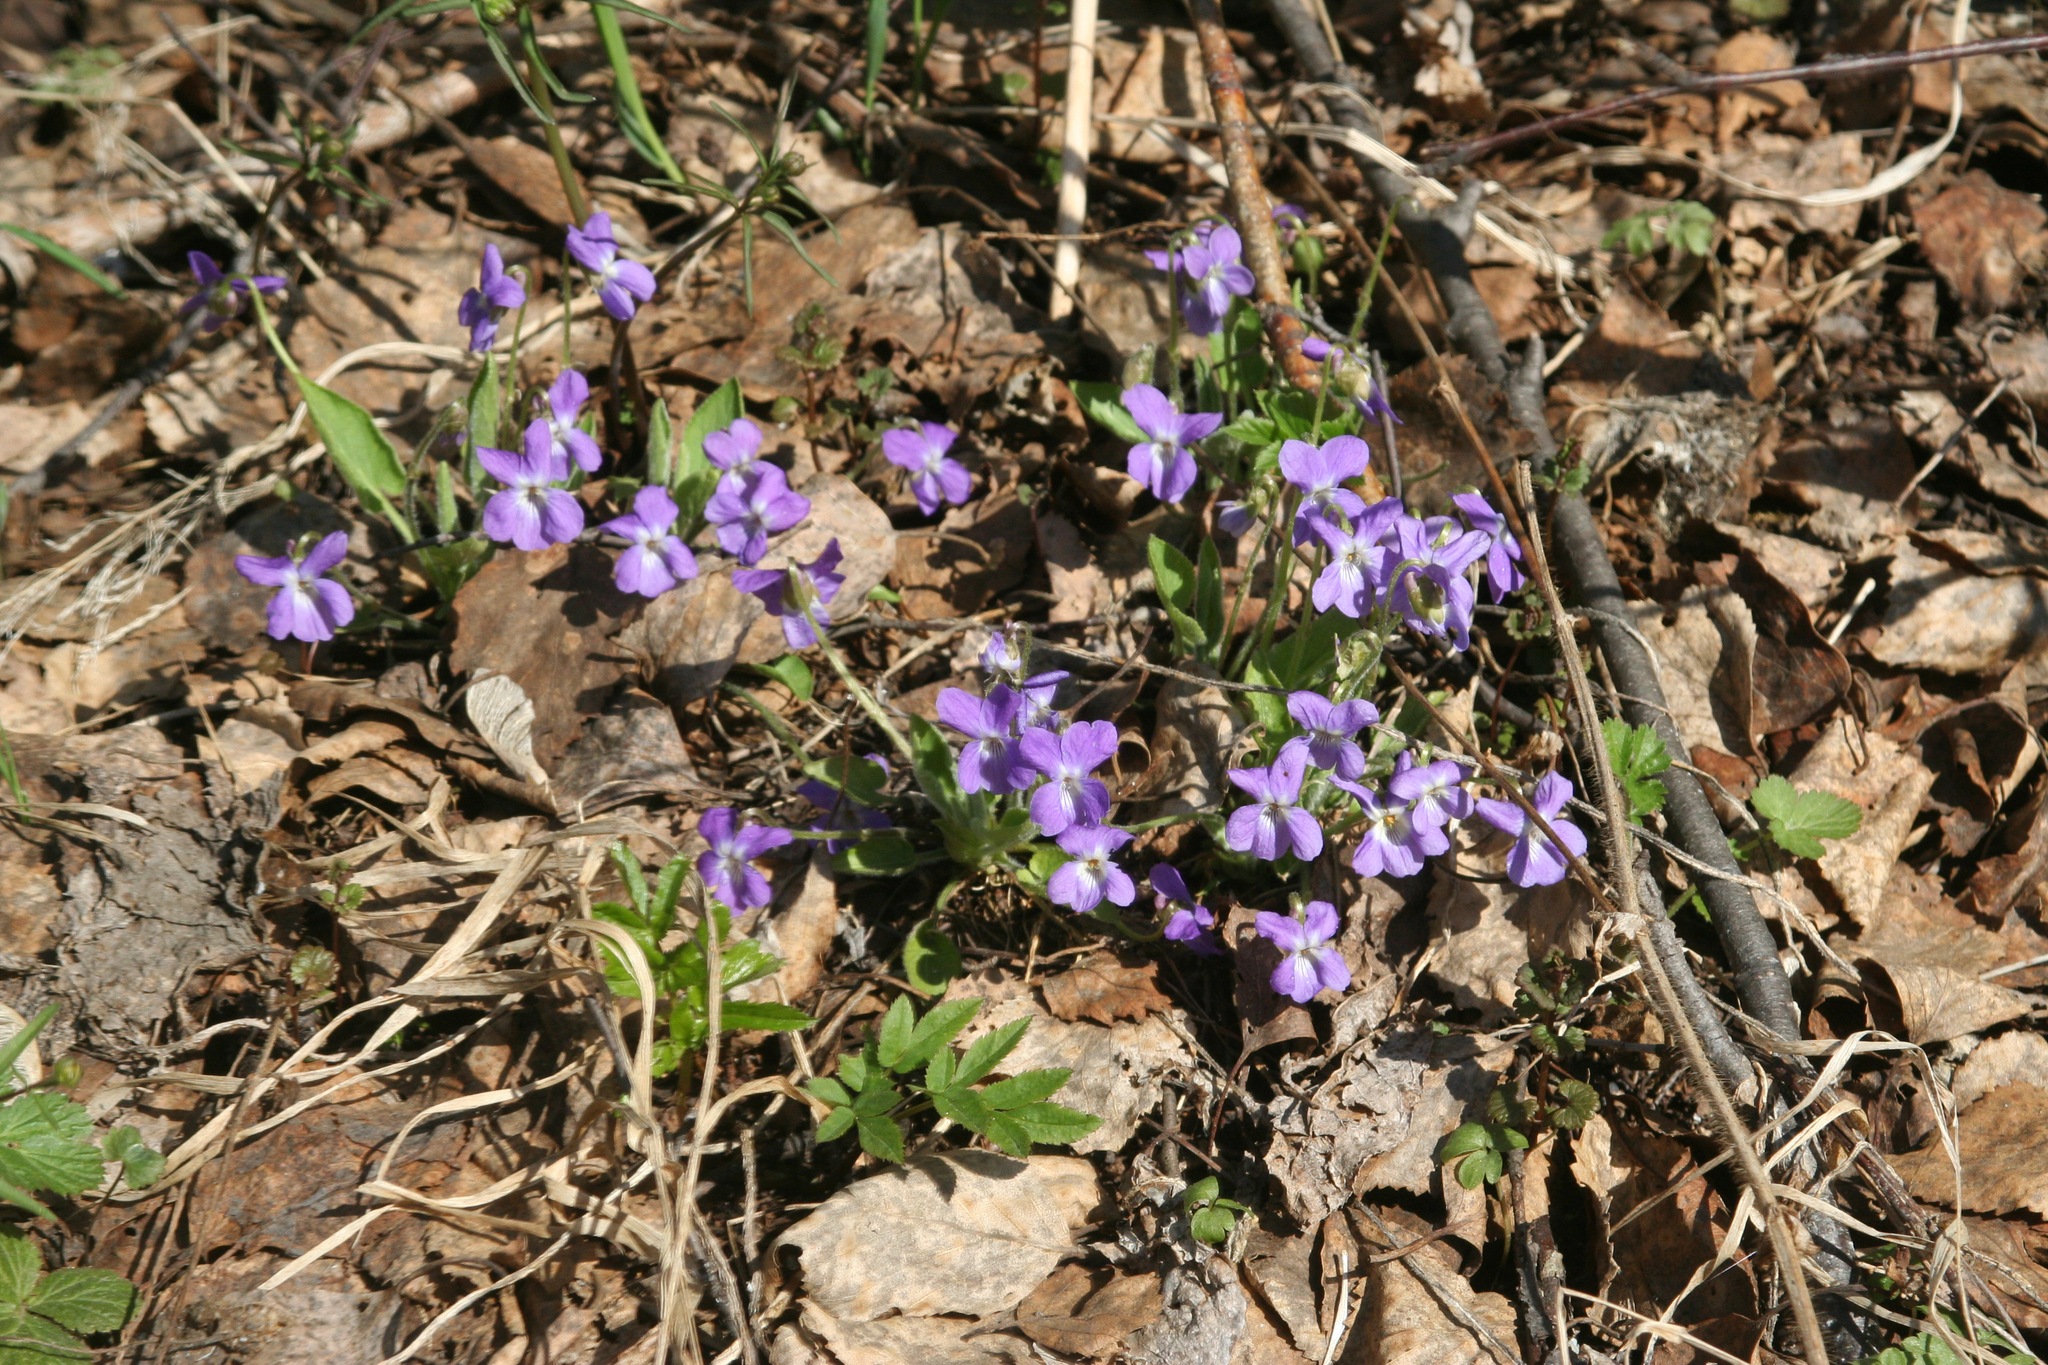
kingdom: Plantae
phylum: Tracheophyta
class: Magnoliopsida
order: Malpighiales
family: Violaceae
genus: Viola
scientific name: Viola hirta
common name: Hairy violet
